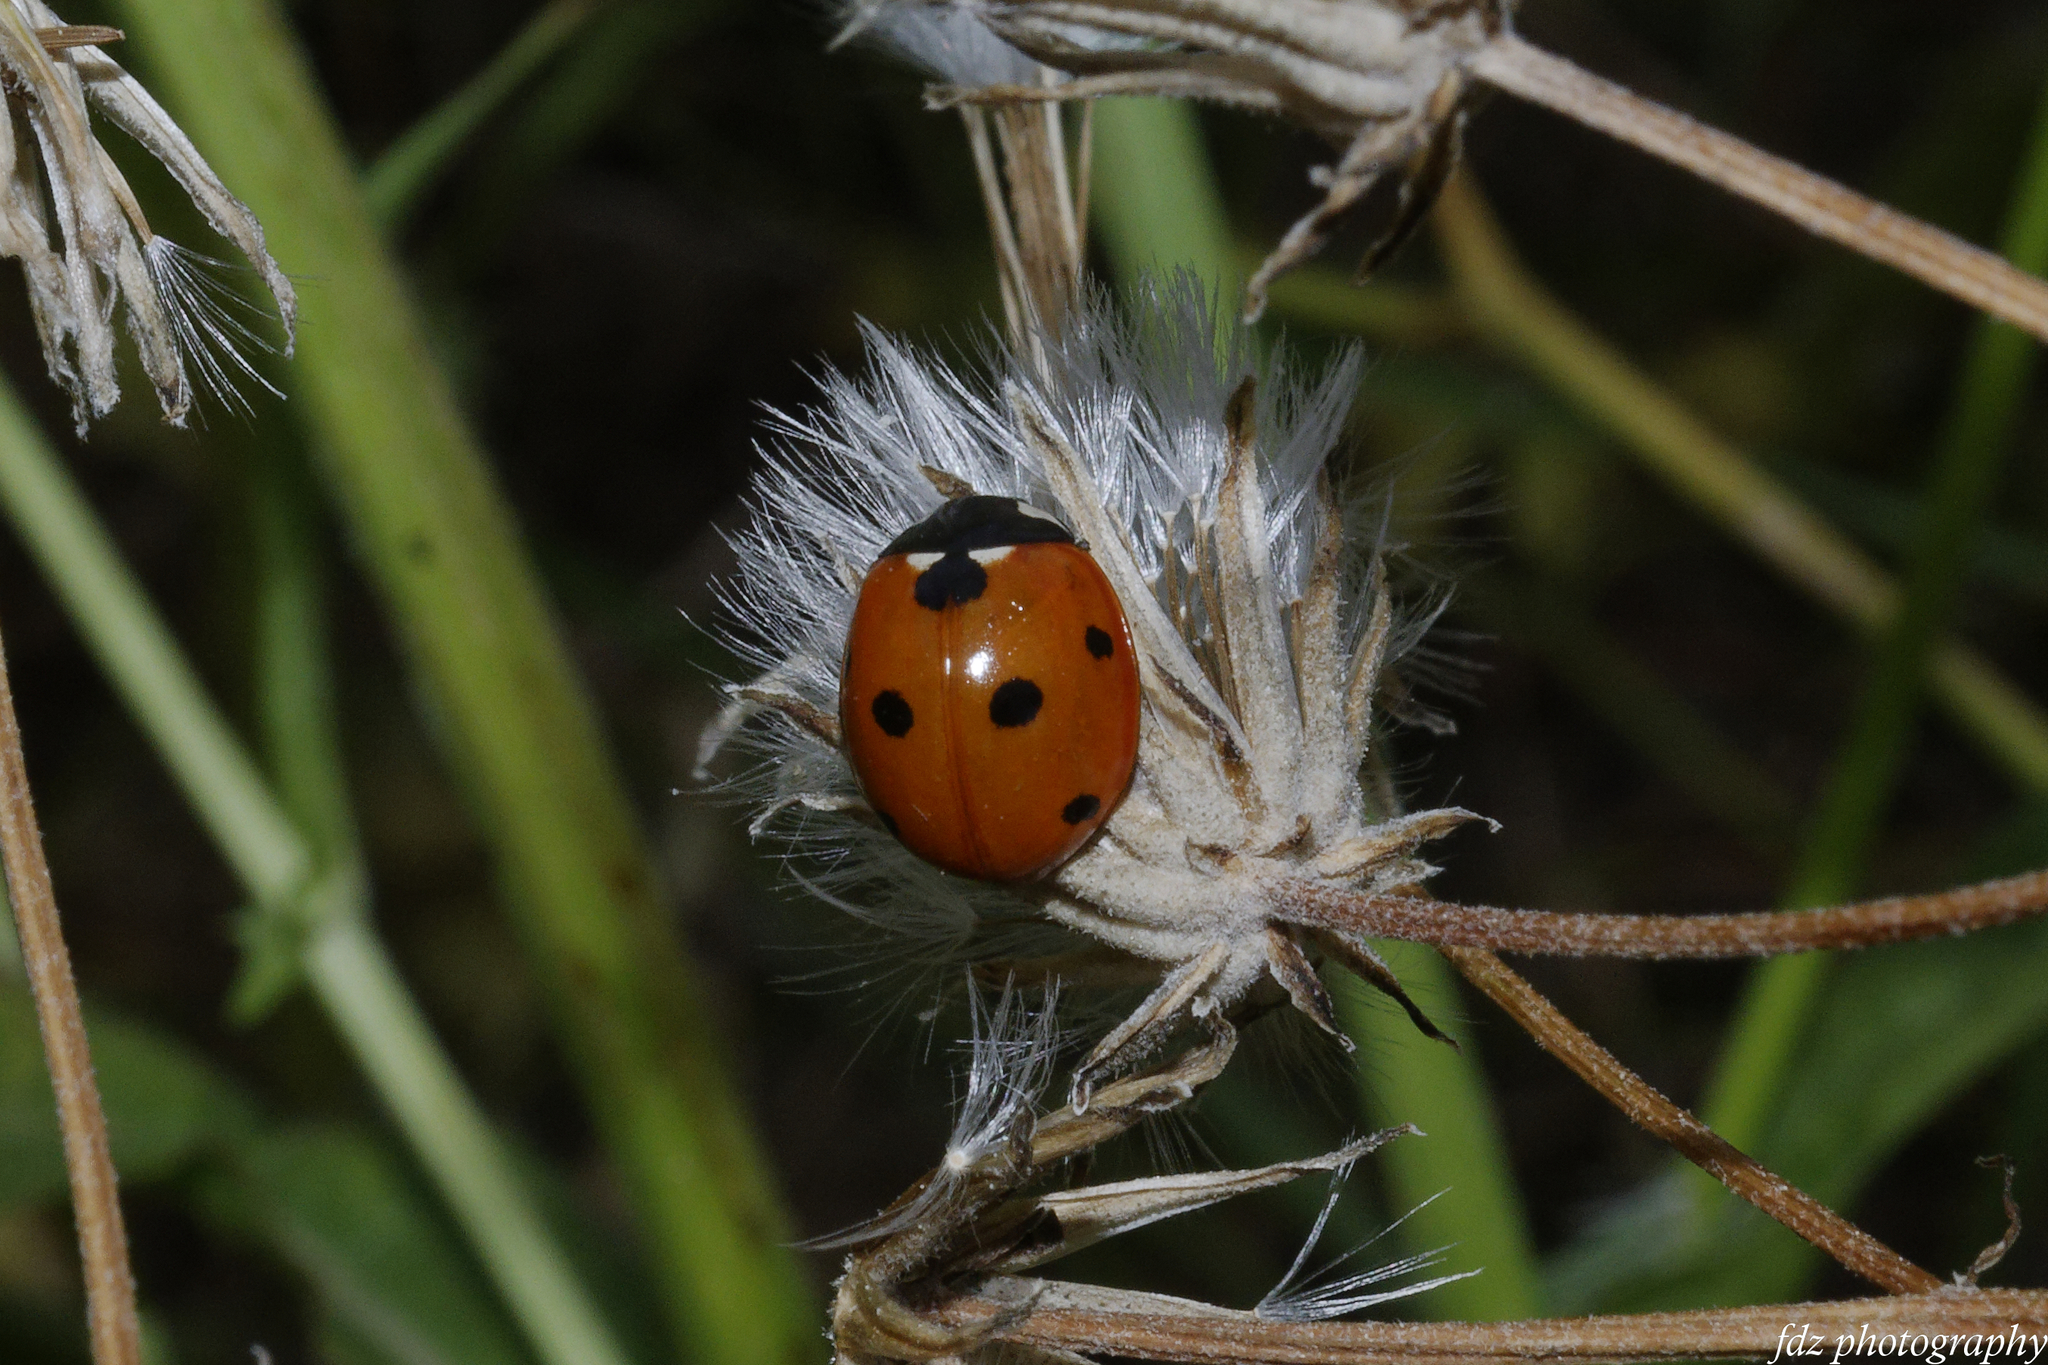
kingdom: Animalia
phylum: Arthropoda
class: Insecta
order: Coleoptera
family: Coccinellidae
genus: Coccinella
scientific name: Coccinella septempunctata
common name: Sevenspotted lady beetle
